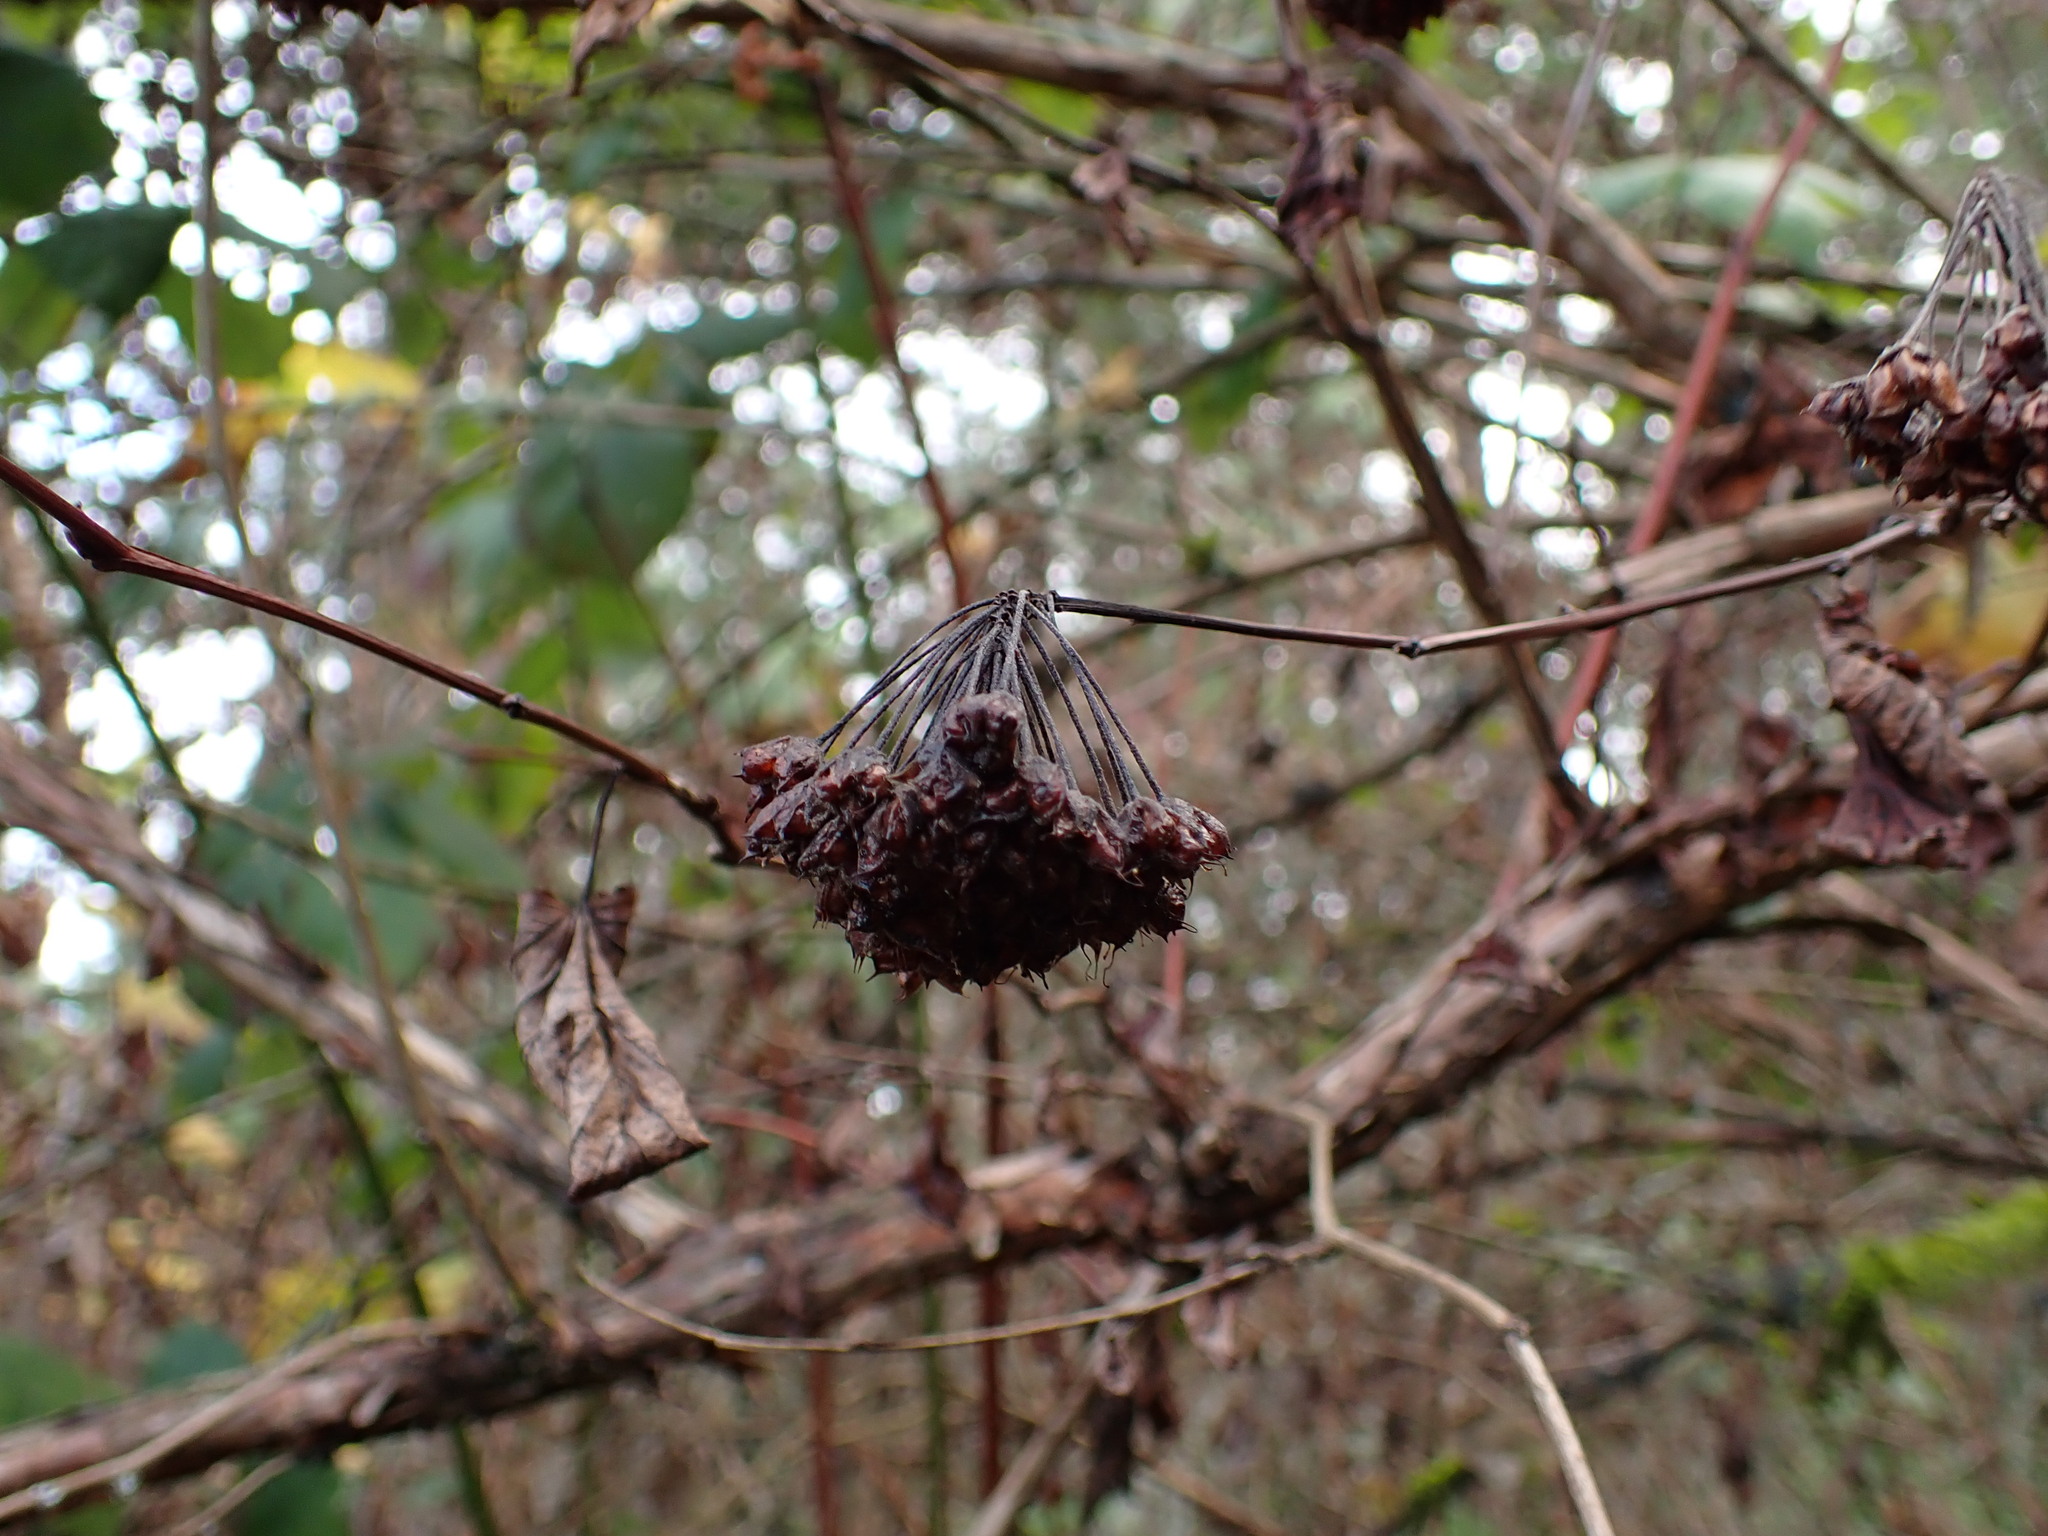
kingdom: Plantae
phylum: Tracheophyta
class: Magnoliopsida
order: Rosales
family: Rosaceae
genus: Physocarpus
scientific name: Physocarpus capitatus
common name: Pacific ninebark
